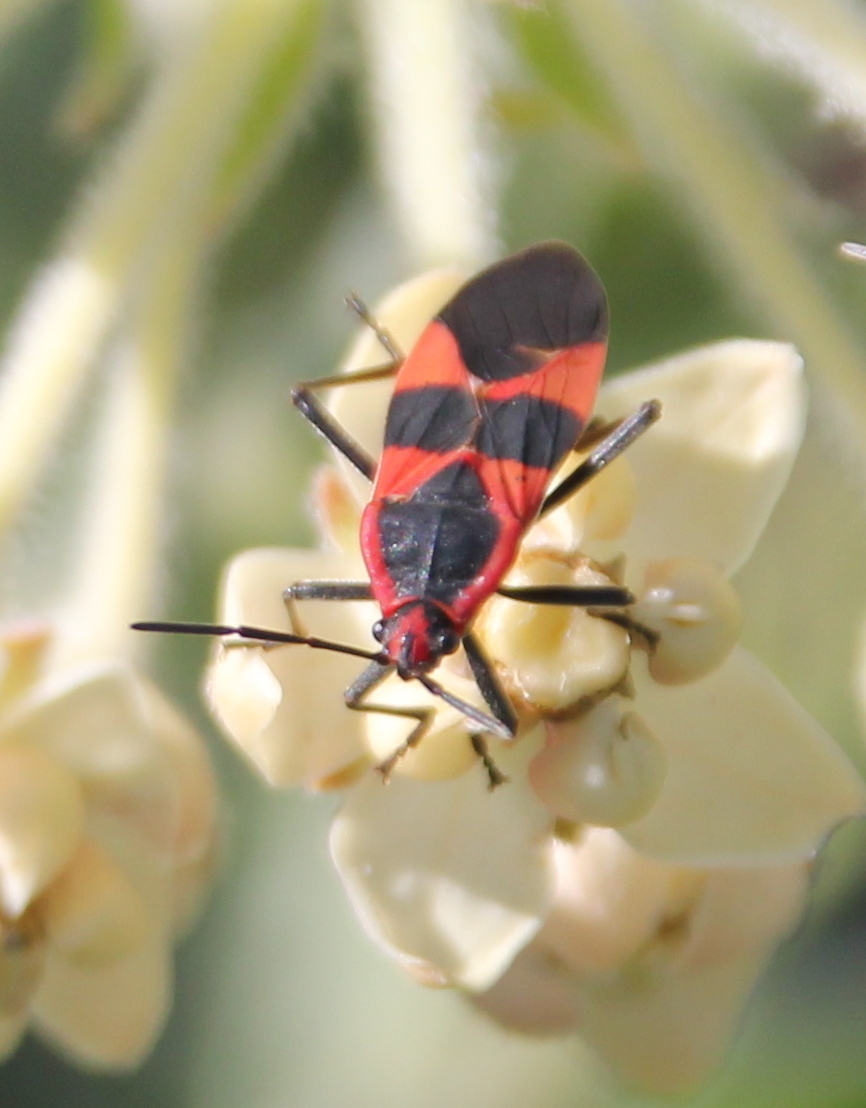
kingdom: Animalia
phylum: Arthropoda
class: Insecta
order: Hemiptera
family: Lygaeidae
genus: Oncopeltus
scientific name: Oncopeltus fasciatus
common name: Large milkweed bug
